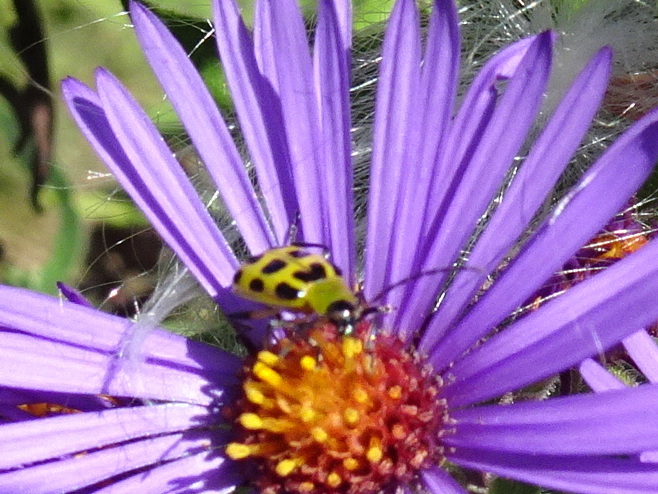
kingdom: Animalia
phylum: Arthropoda
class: Insecta
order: Coleoptera
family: Chrysomelidae
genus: Diabrotica
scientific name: Diabrotica undecimpunctata
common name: Spotted cucumber beetle
